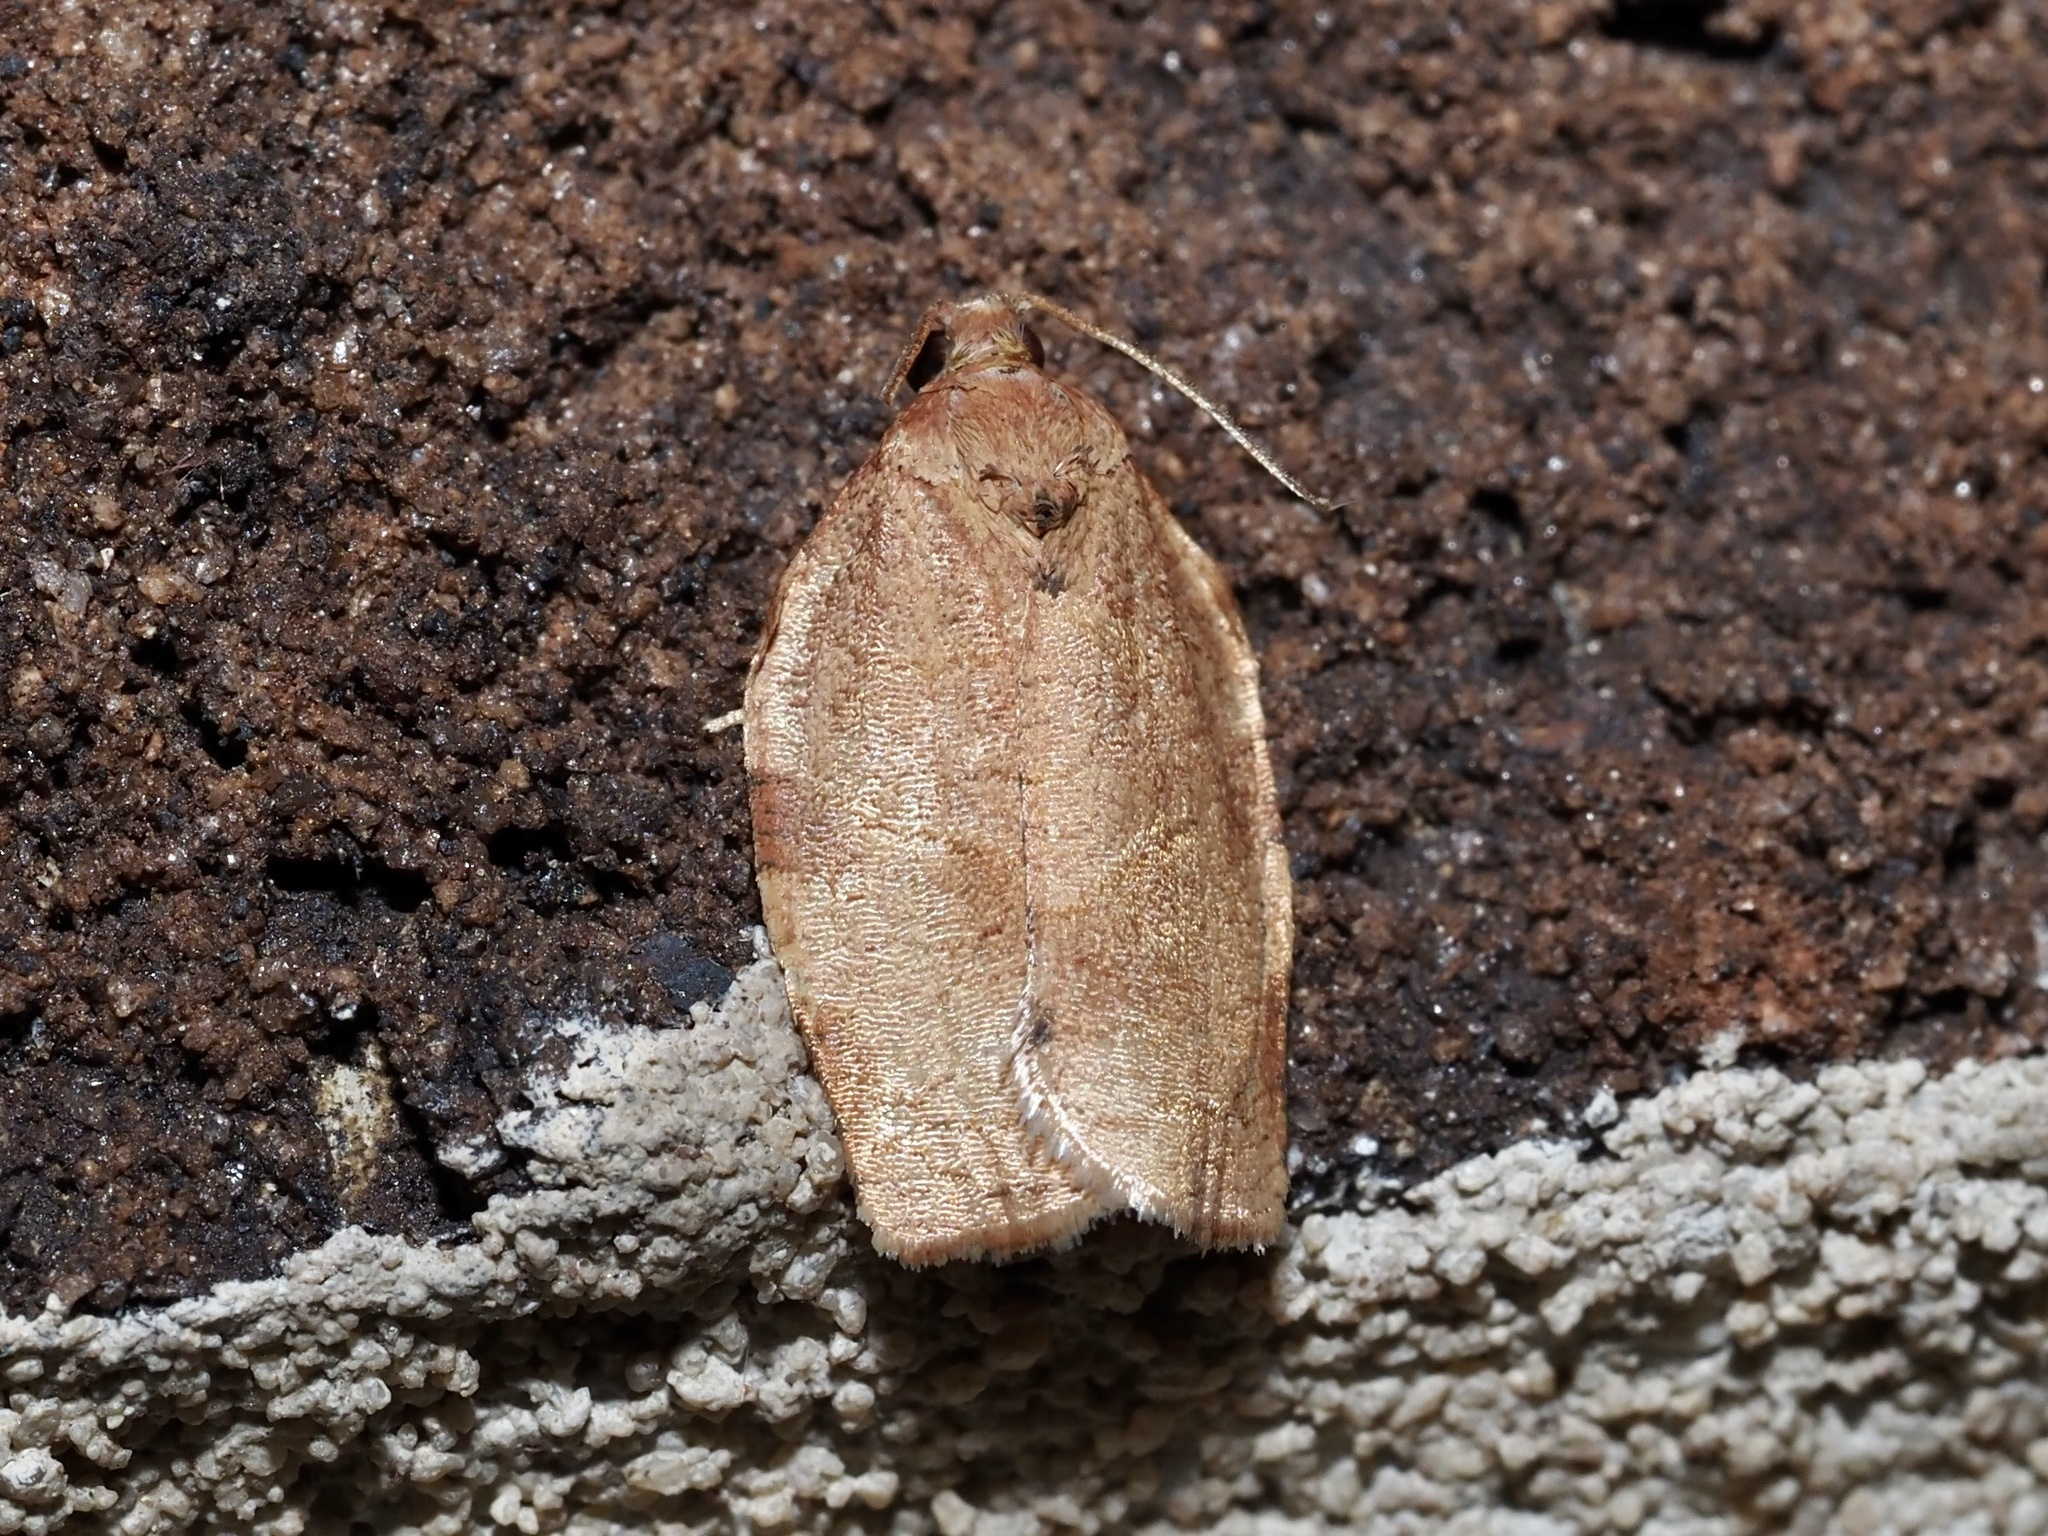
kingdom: Animalia
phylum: Arthropoda
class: Insecta
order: Lepidoptera
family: Tortricidae
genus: Choristoneura
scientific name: Choristoneura rosaceana
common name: Oblique-banded leafroller moth
